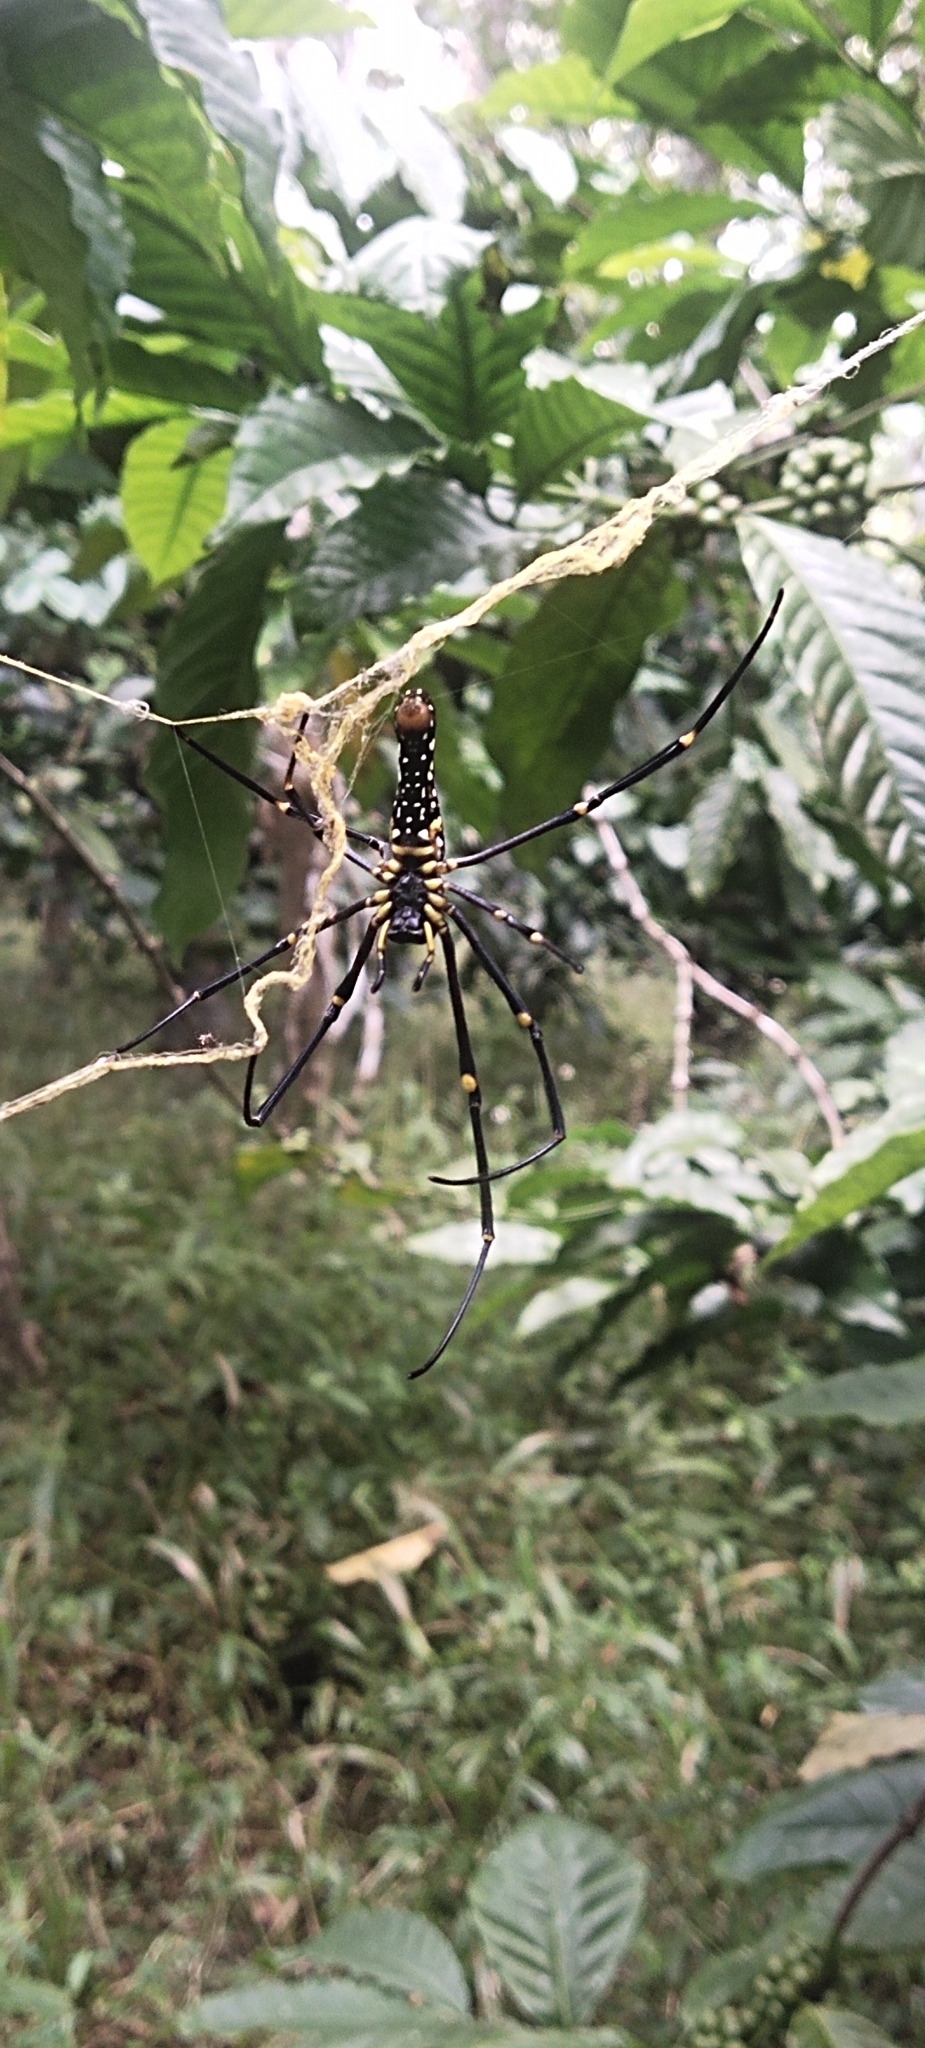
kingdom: Animalia
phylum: Arthropoda
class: Arachnida
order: Araneae
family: Araneidae
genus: Nephila
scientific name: Nephila pilipes
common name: Giant golden orb weaver
